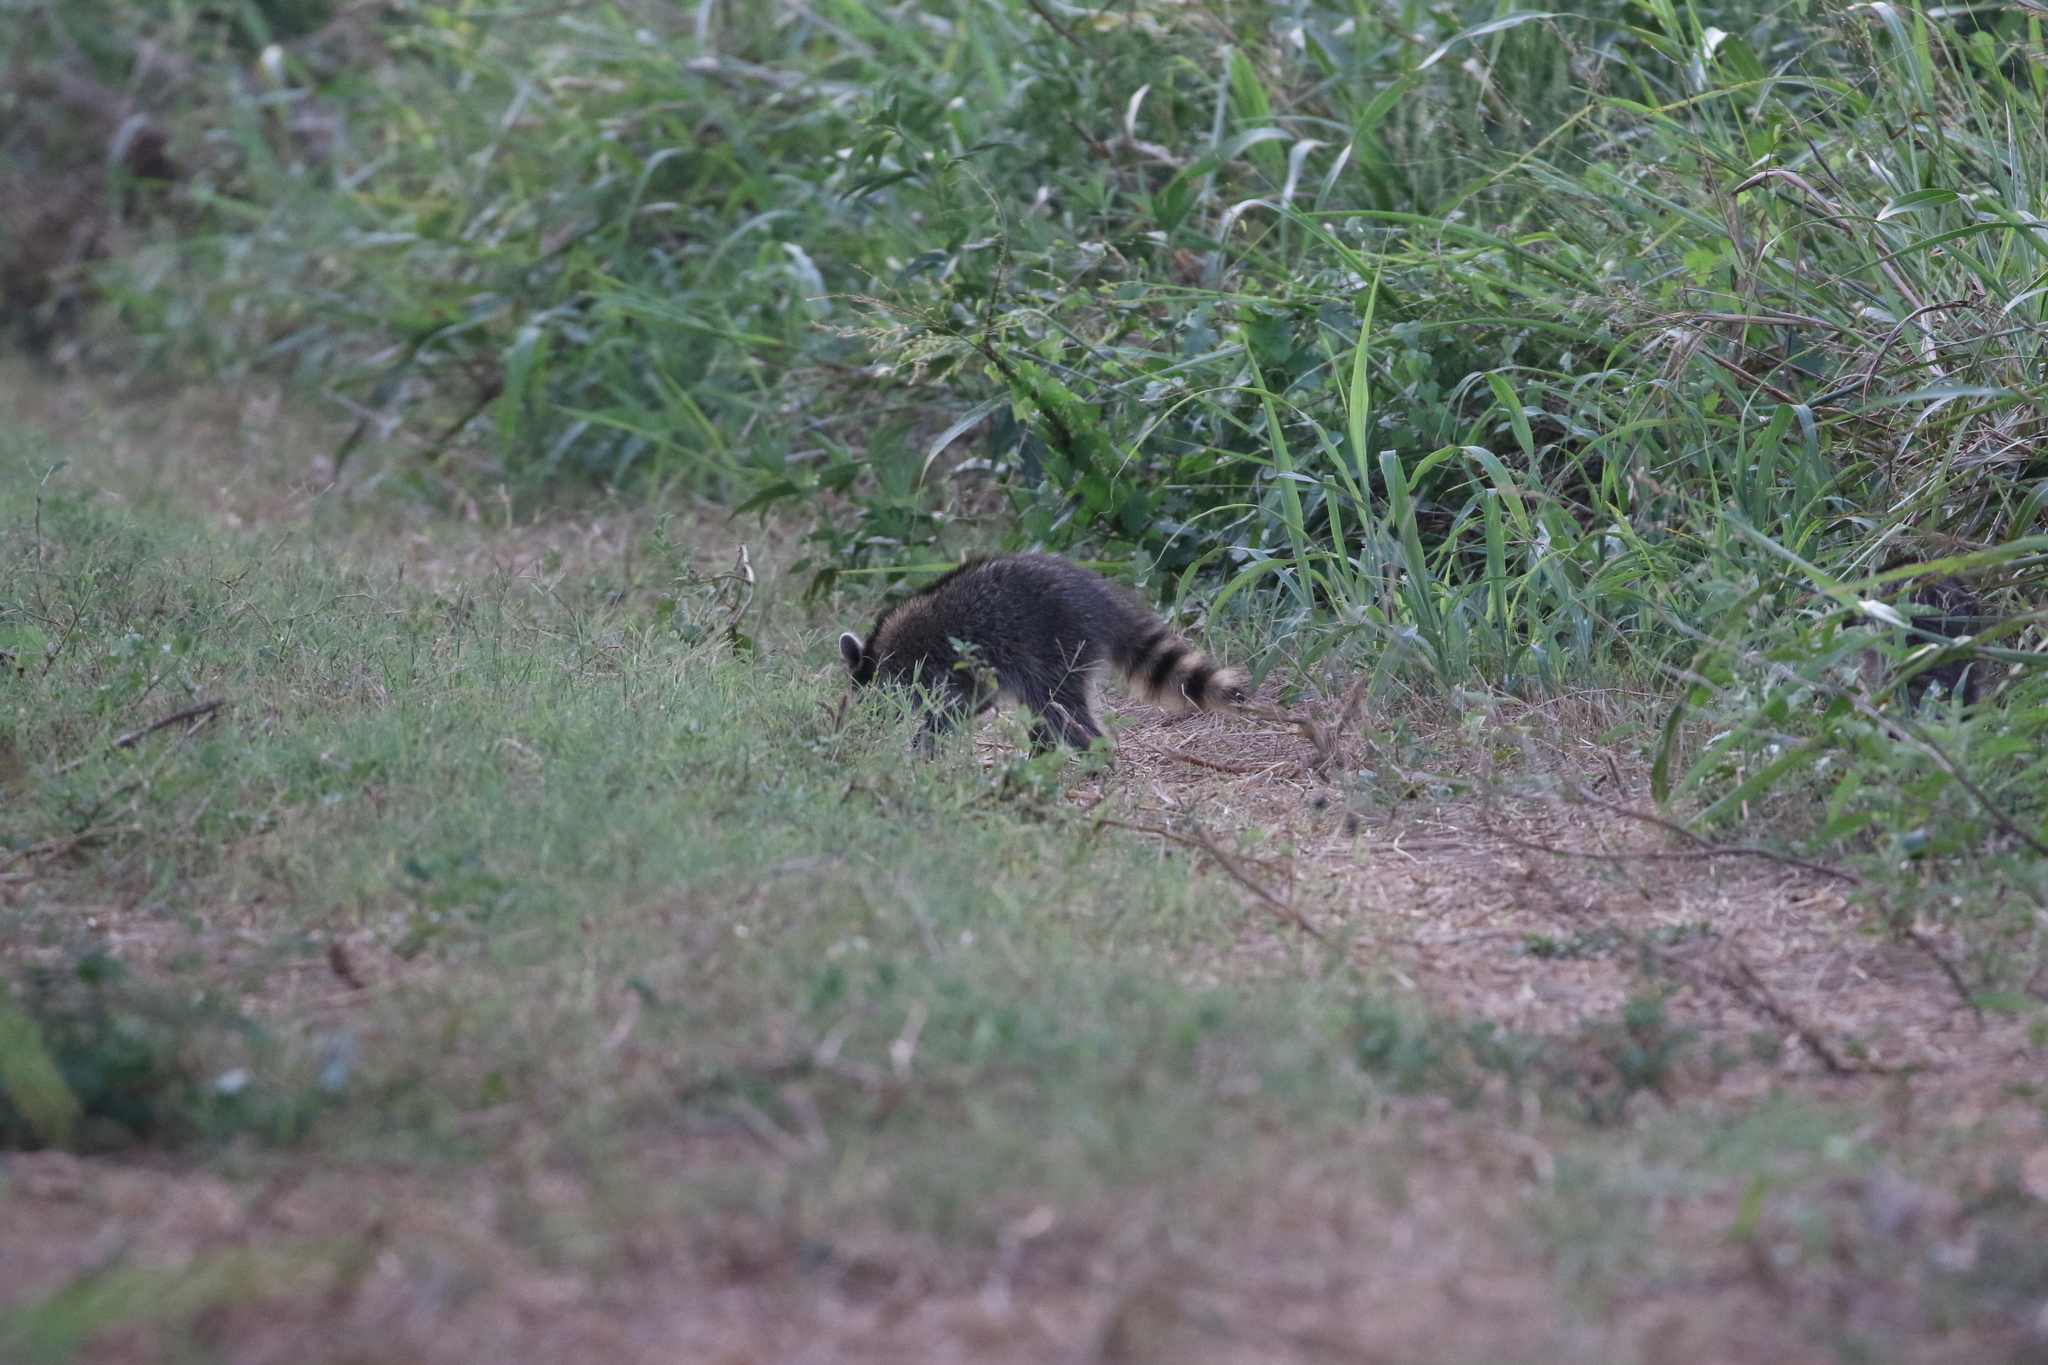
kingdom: Animalia
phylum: Chordata
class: Mammalia
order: Carnivora
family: Procyonidae
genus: Procyon
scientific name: Procyon lotor
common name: Raccoon
